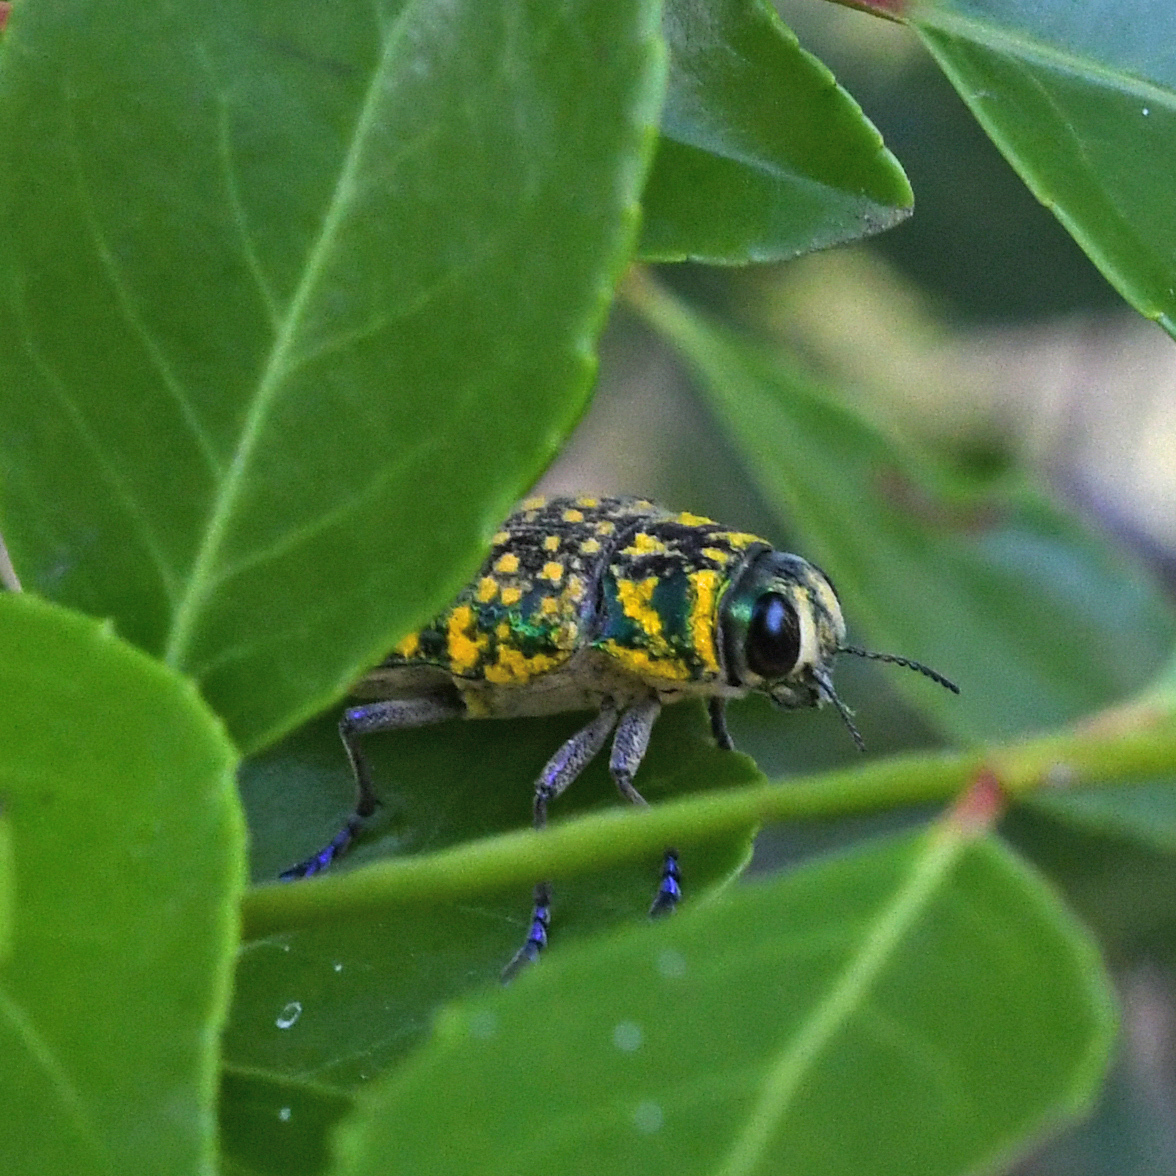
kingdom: Animalia
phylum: Arthropoda
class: Insecta
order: Coleoptera
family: Buprestidae
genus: Lampetis
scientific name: Lampetis
